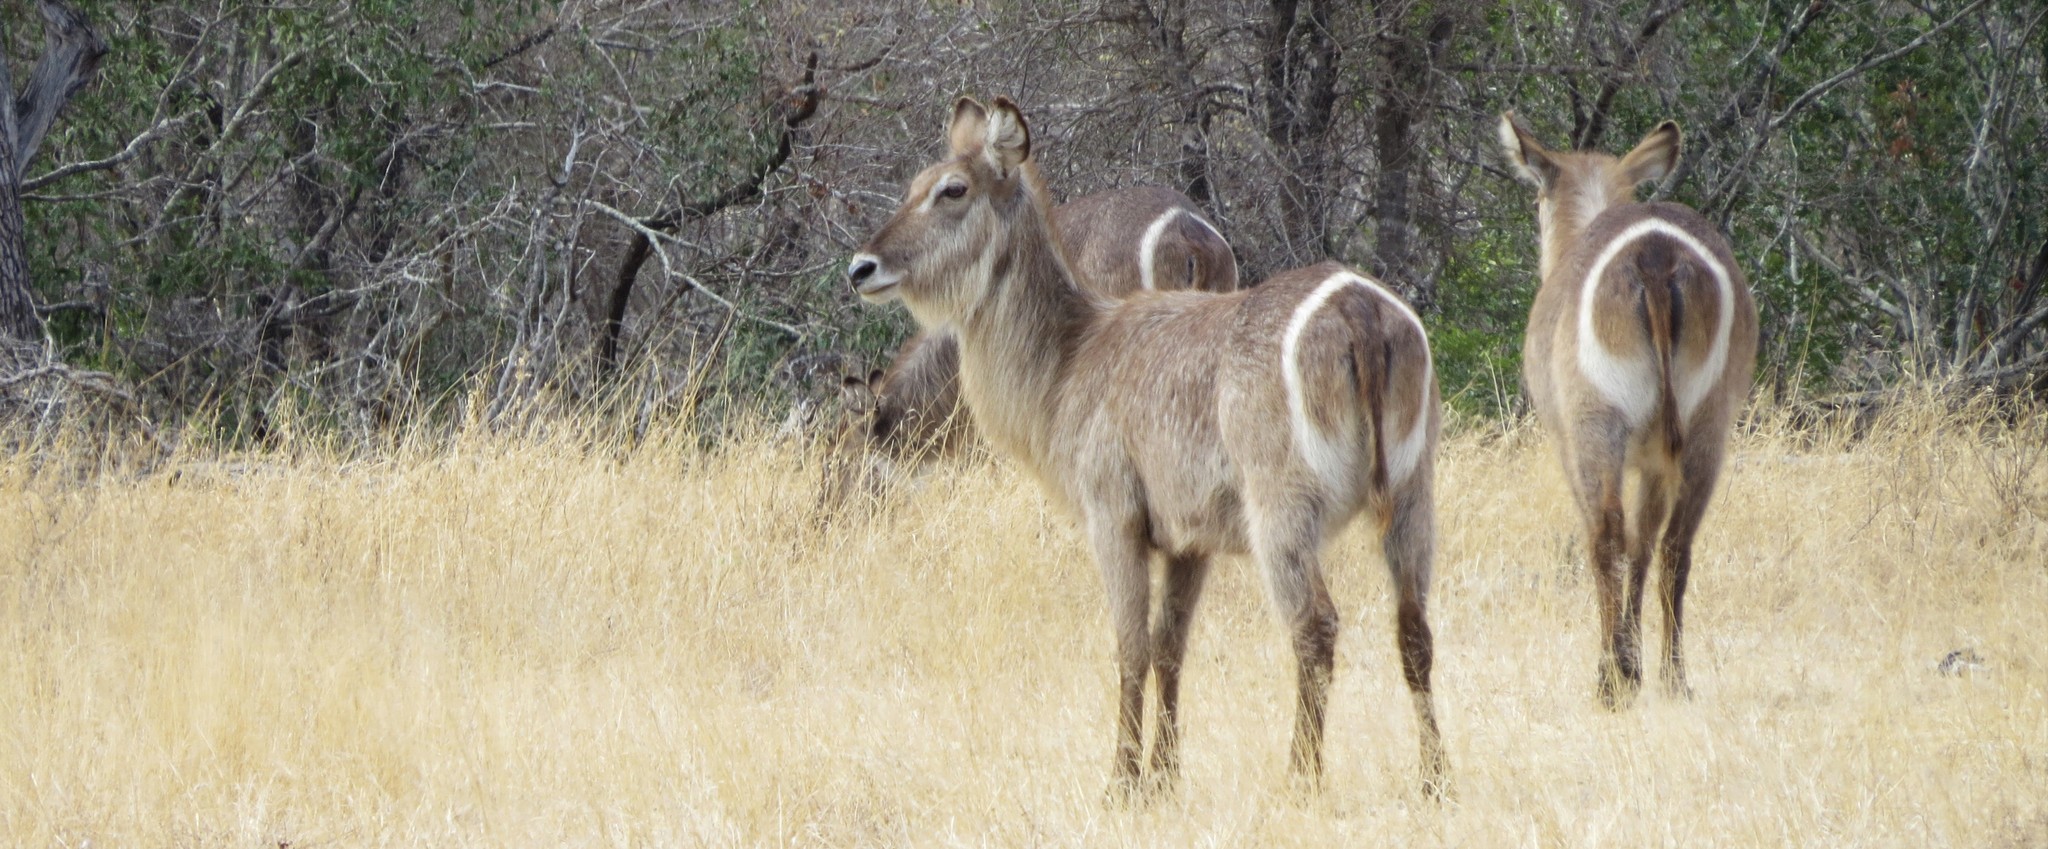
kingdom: Animalia
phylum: Chordata
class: Mammalia
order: Artiodactyla
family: Bovidae
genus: Kobus
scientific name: Kobus ellipsiprymnus
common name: Waterbuck
